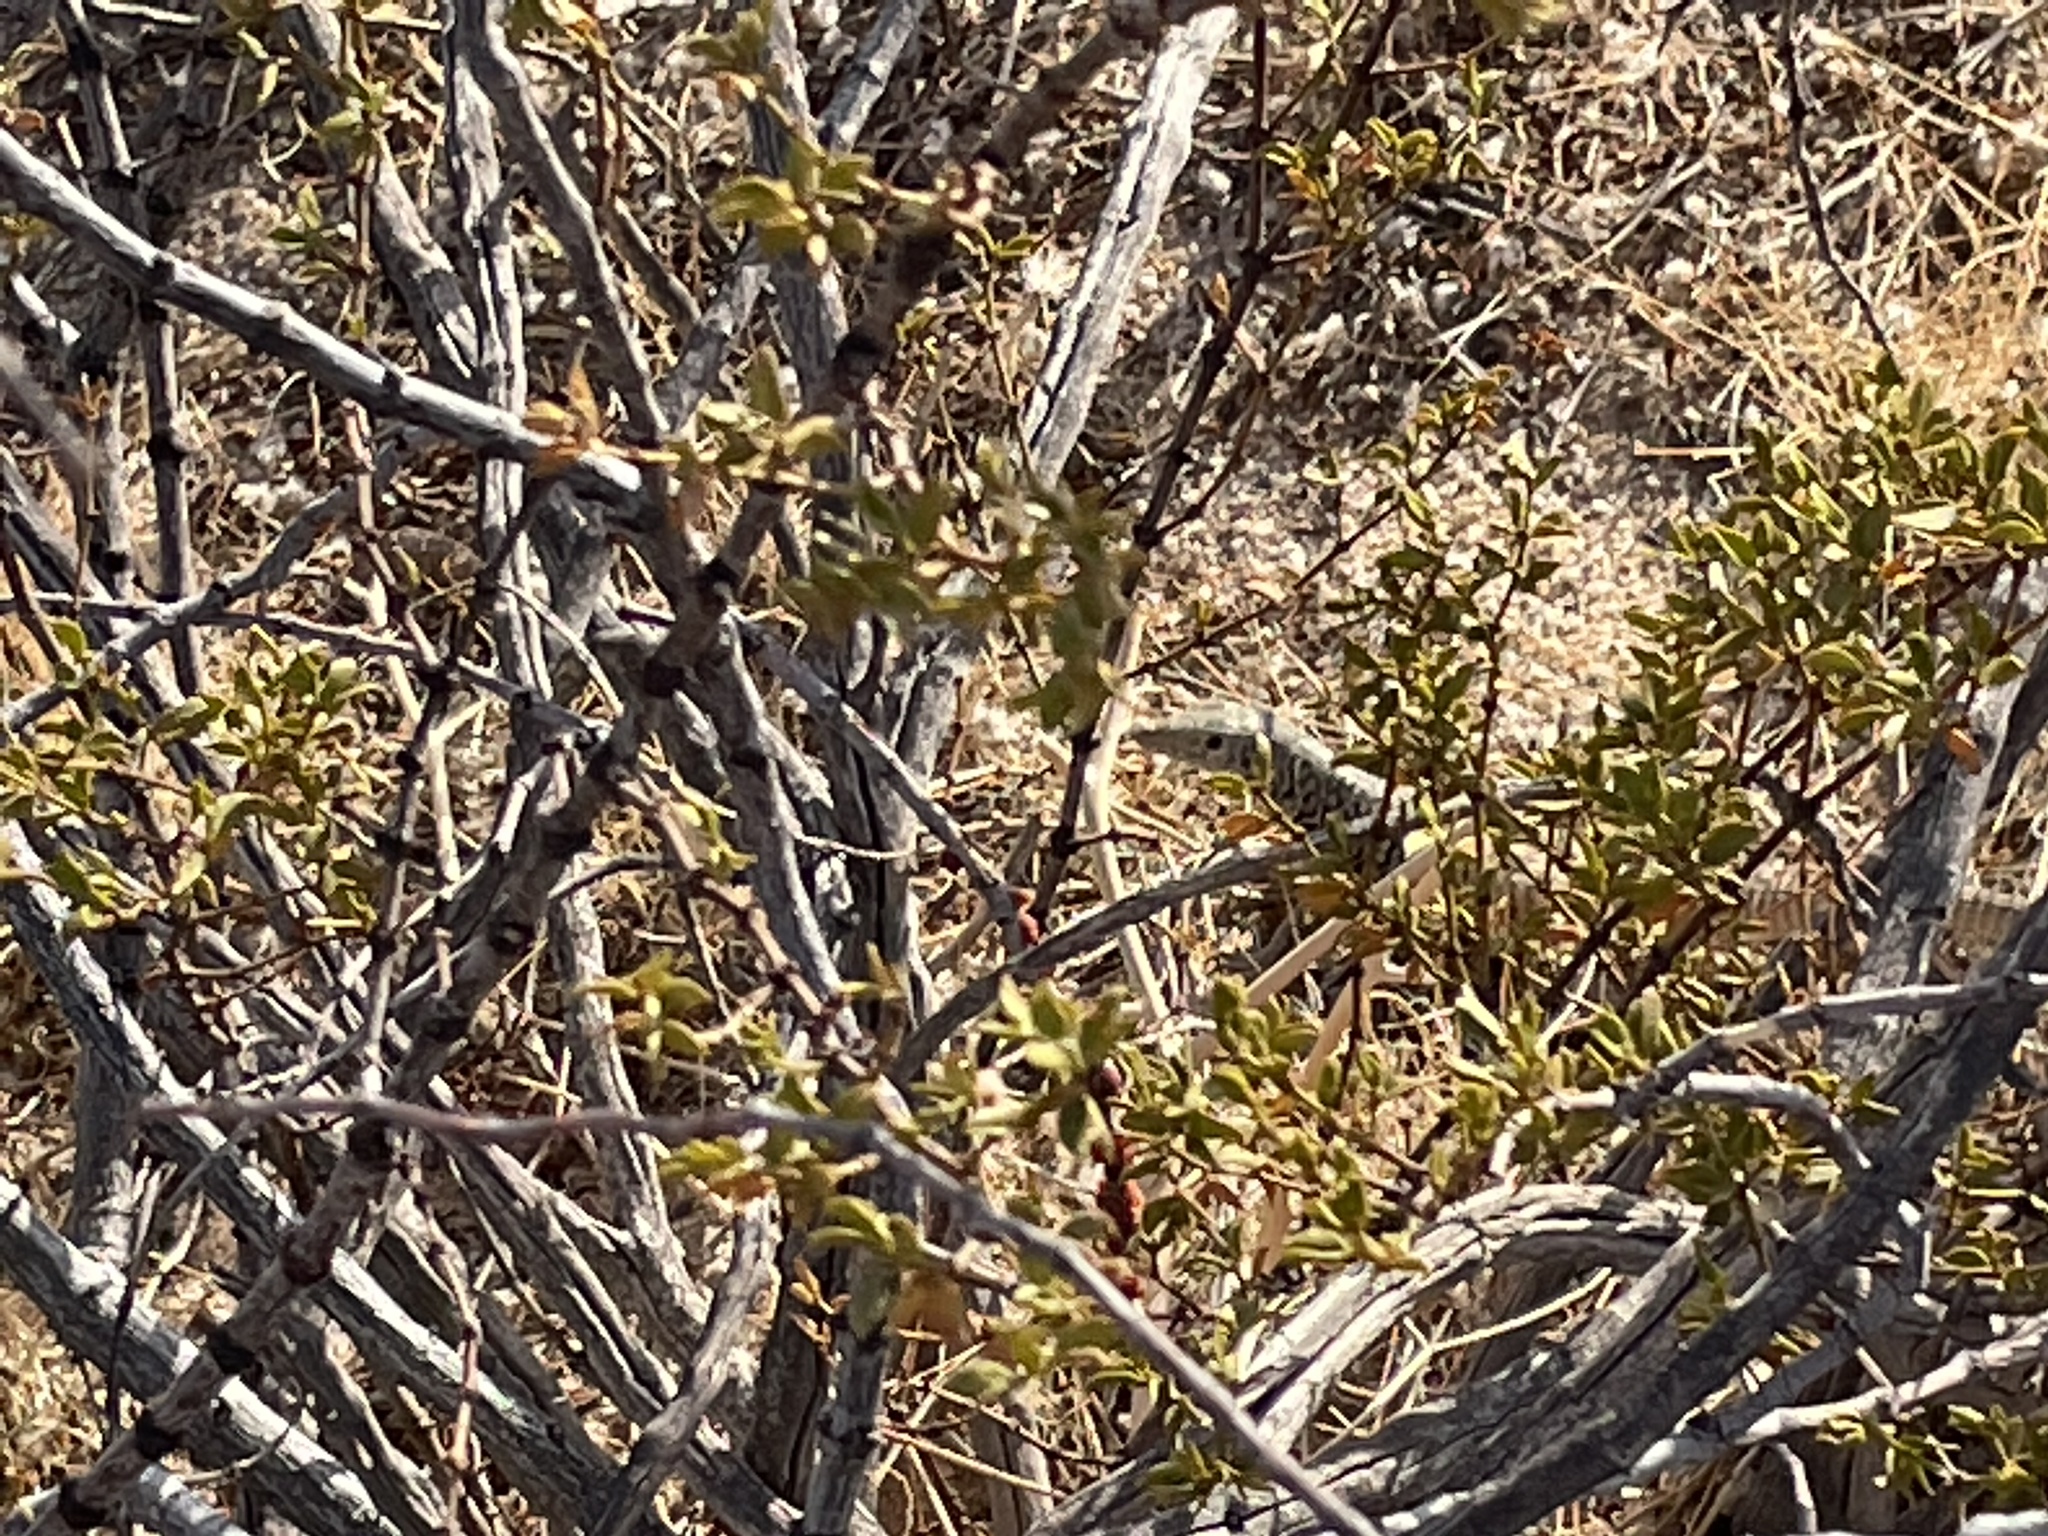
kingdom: Animalia
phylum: Chordata
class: Squamata
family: Teiidae
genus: Aspidoscelis
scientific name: Aspidoscelis tigris
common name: Tiger whiptail
